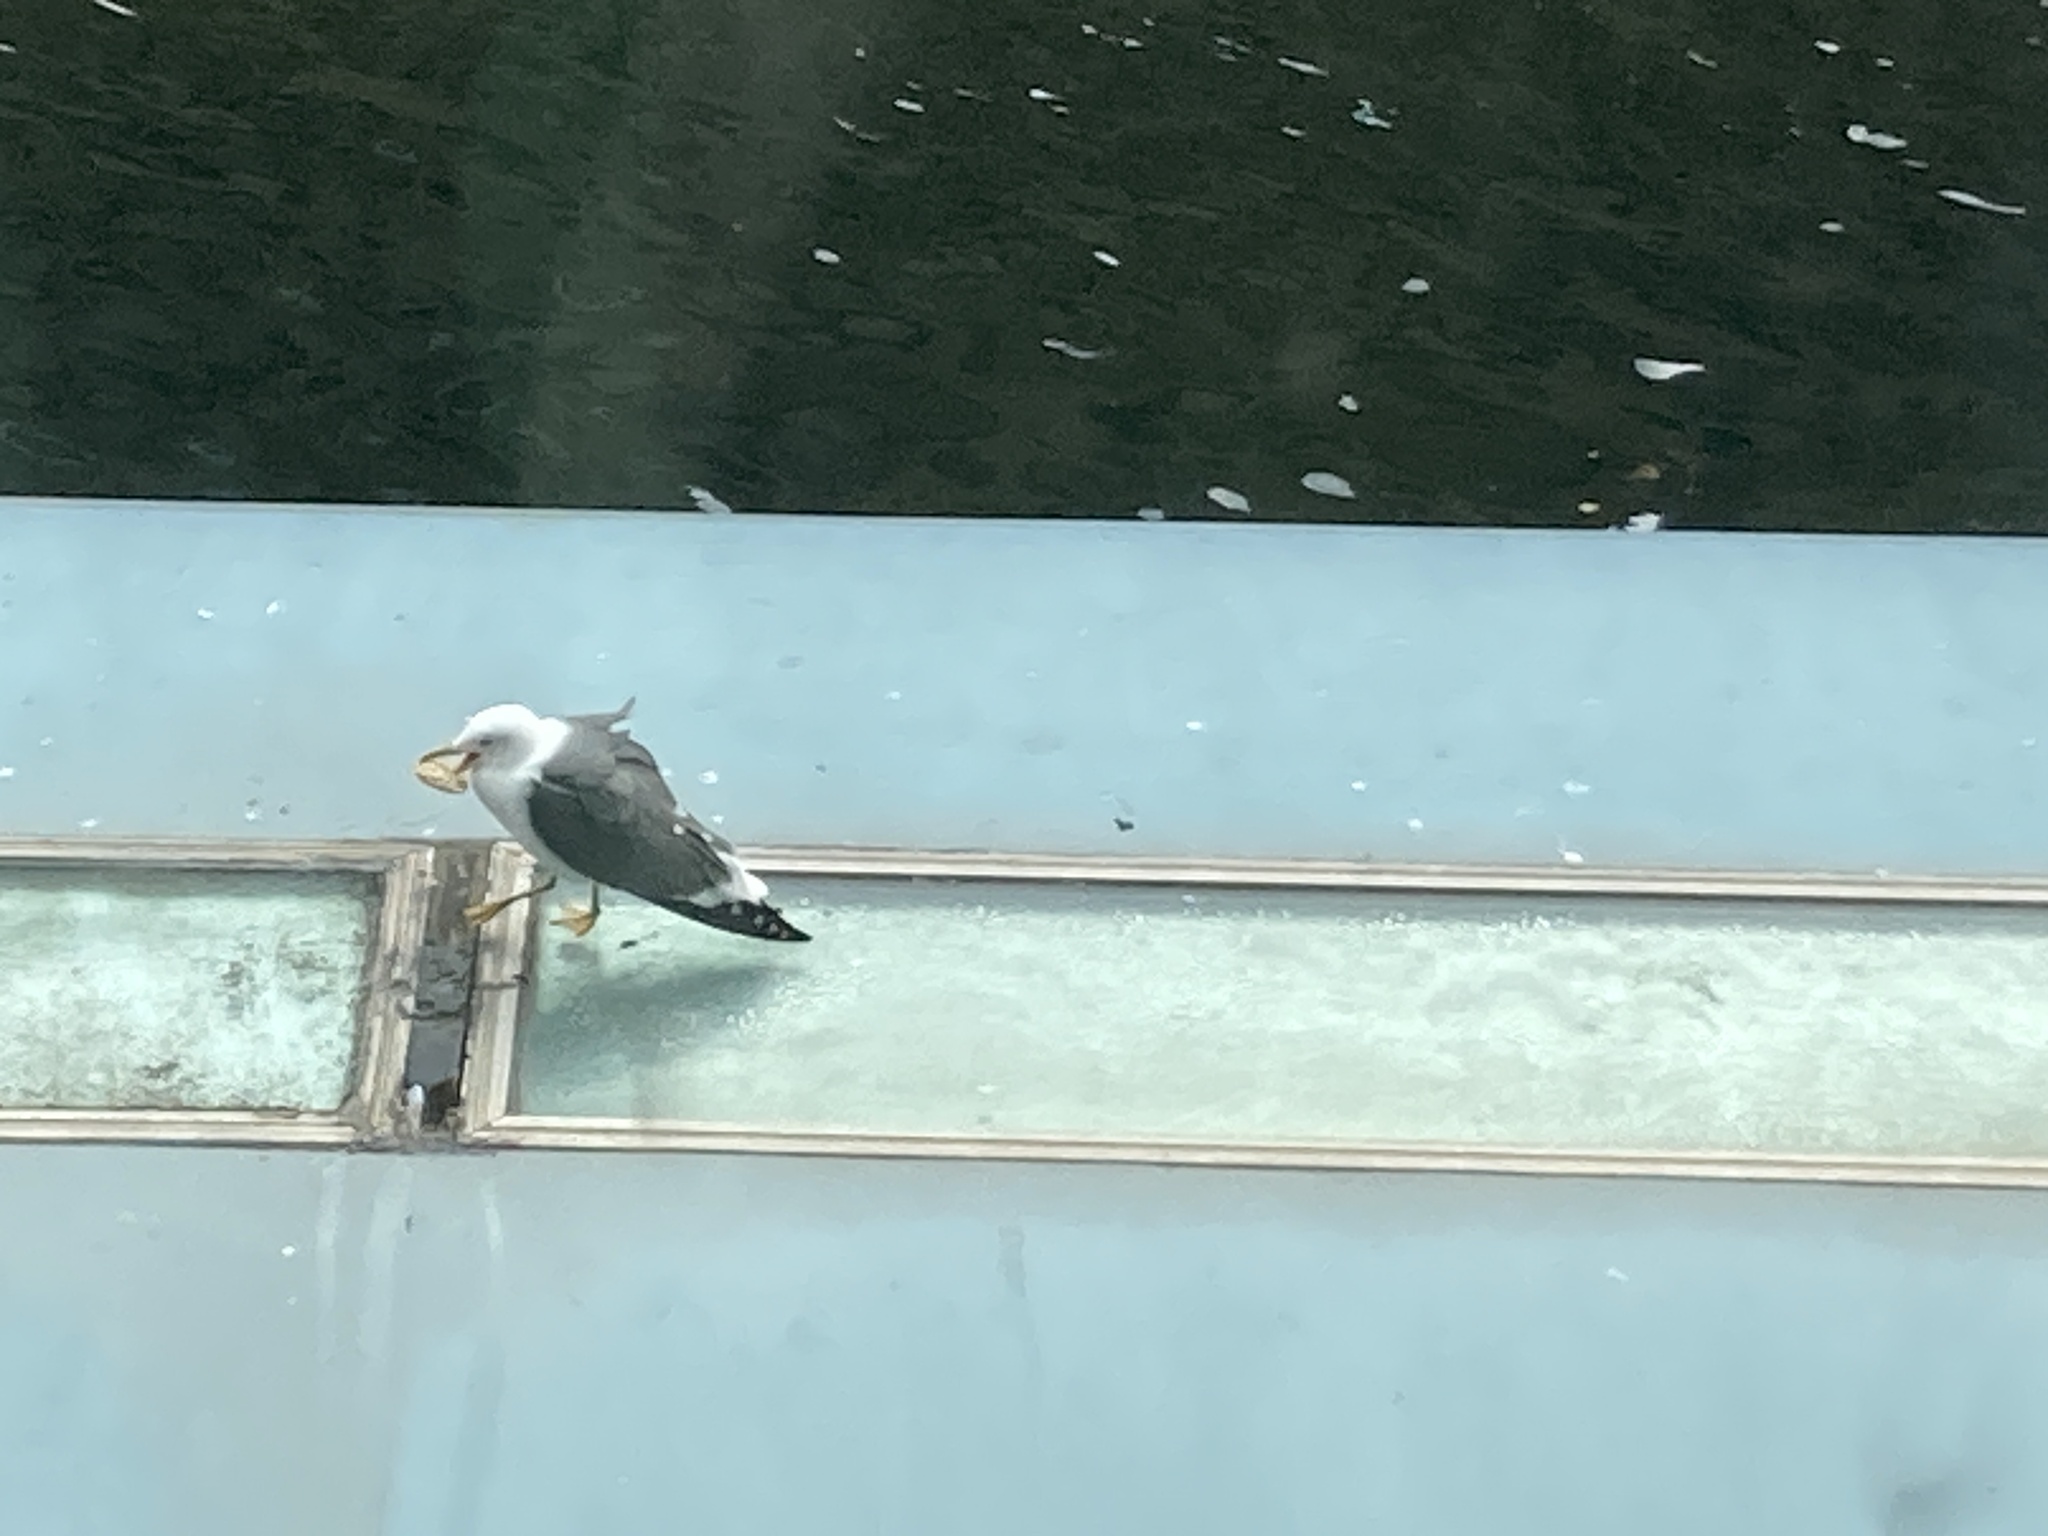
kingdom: Animalia
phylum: Chordata
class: Aves
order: Charadriiformes
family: Laridae
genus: Larus
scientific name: Larus fuscus
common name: Lesser black-backed gull
